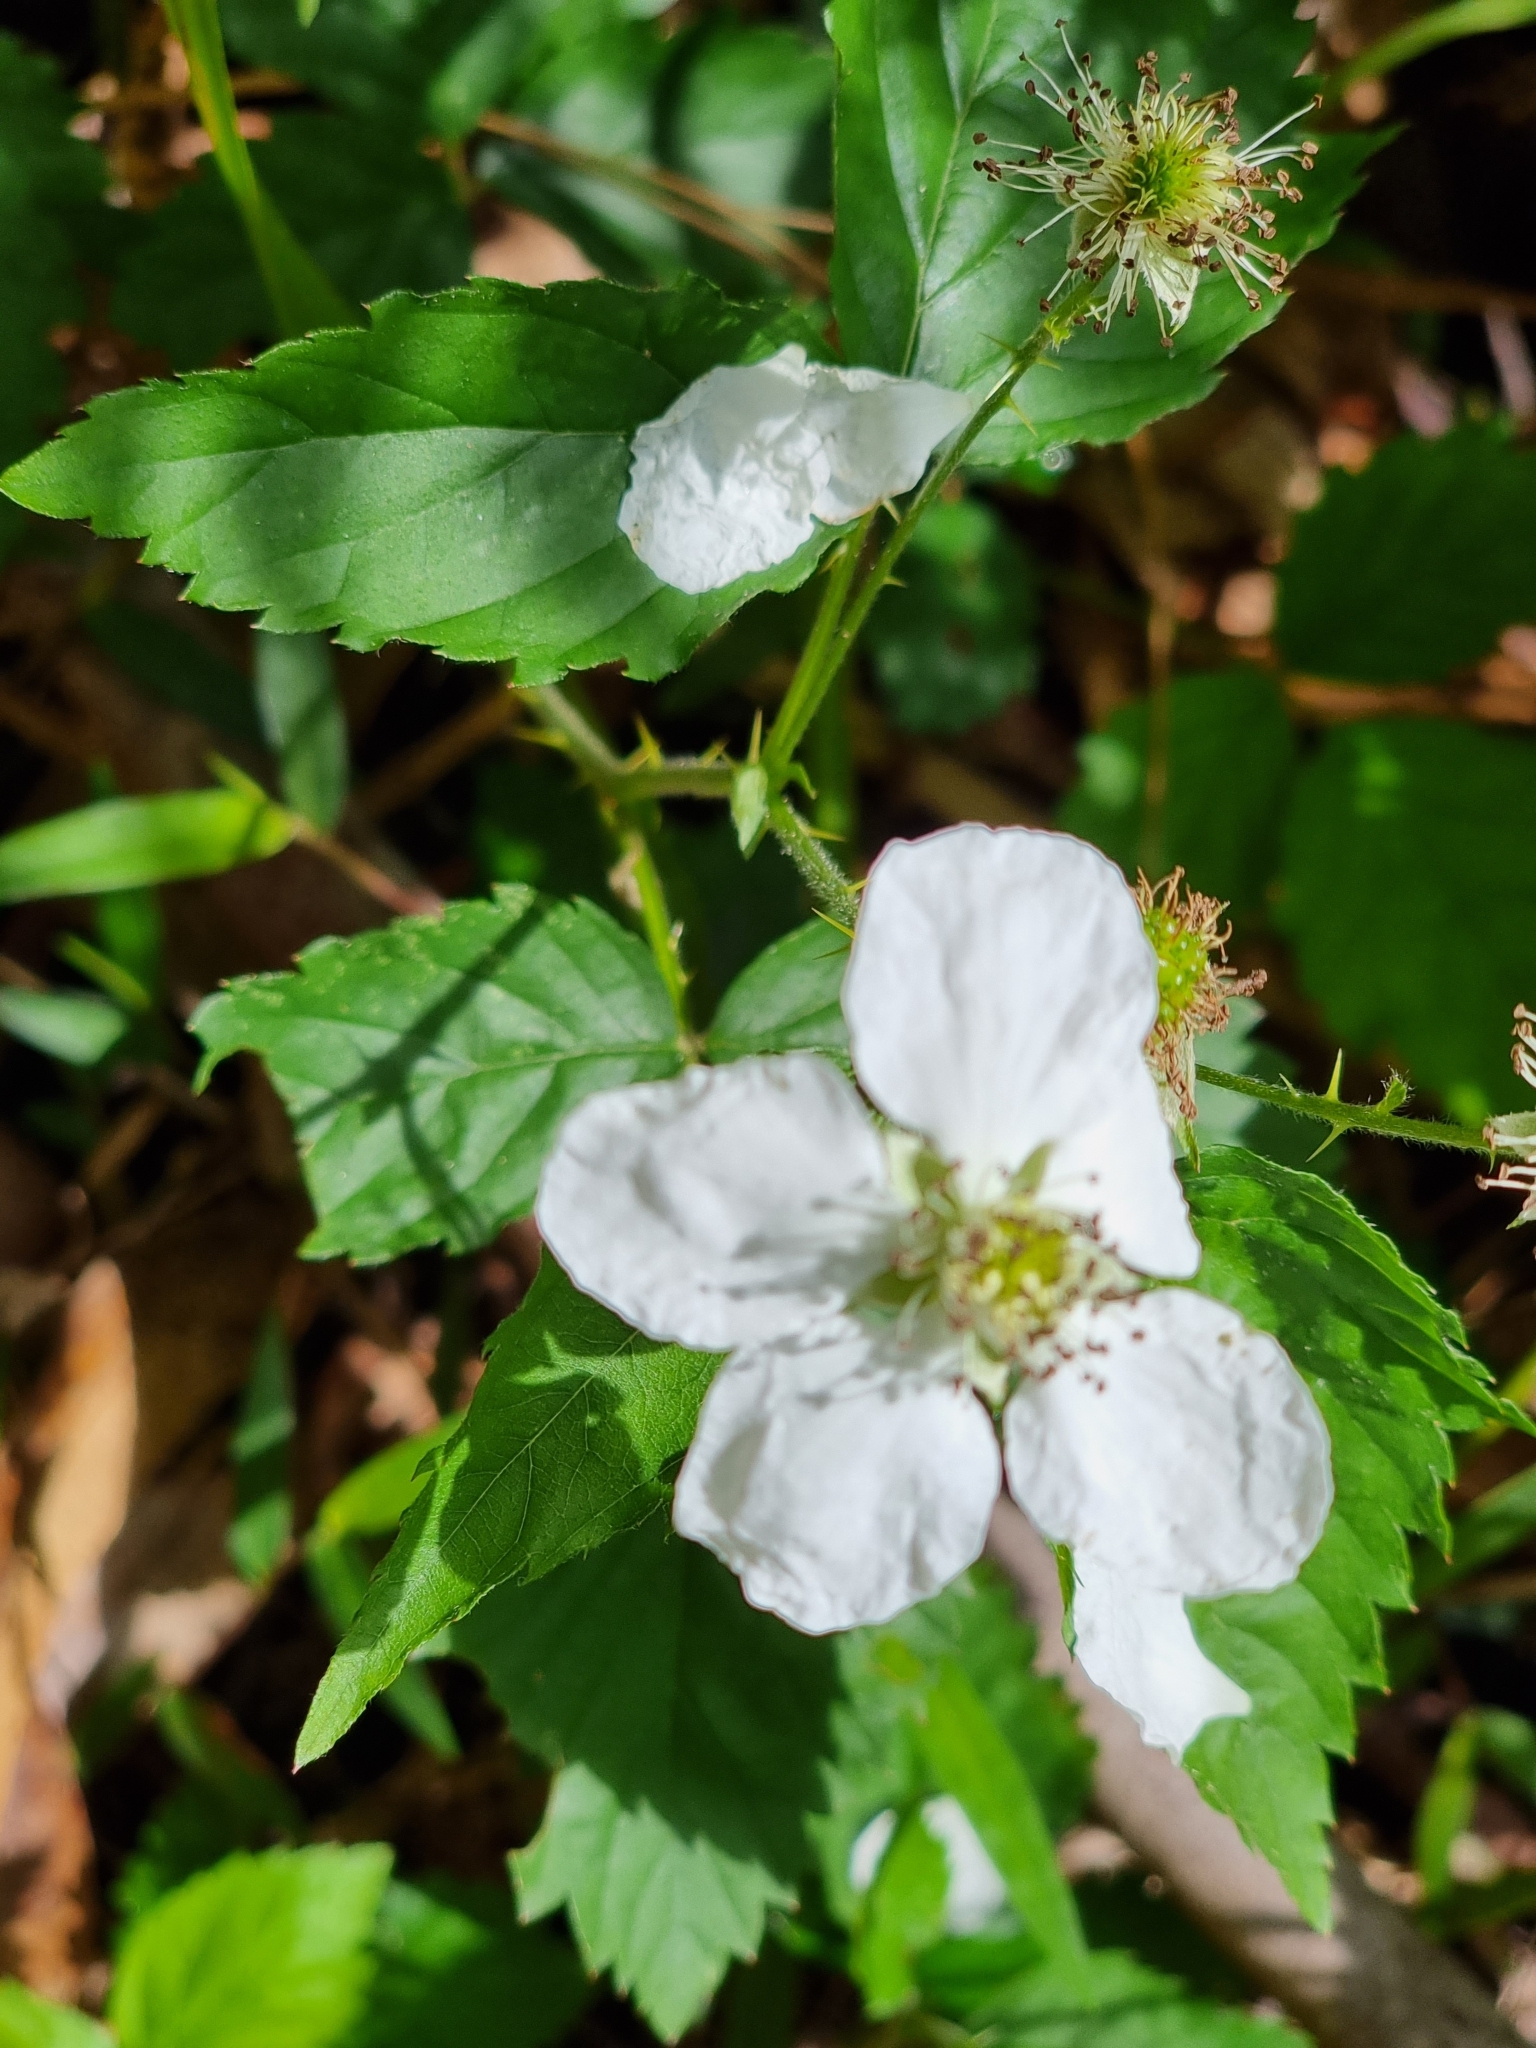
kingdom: Plantae
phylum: Tracheophyta
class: Magnoliopsida
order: Rosales
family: Rosaceae
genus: Rubus
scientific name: Rubus laudatus
